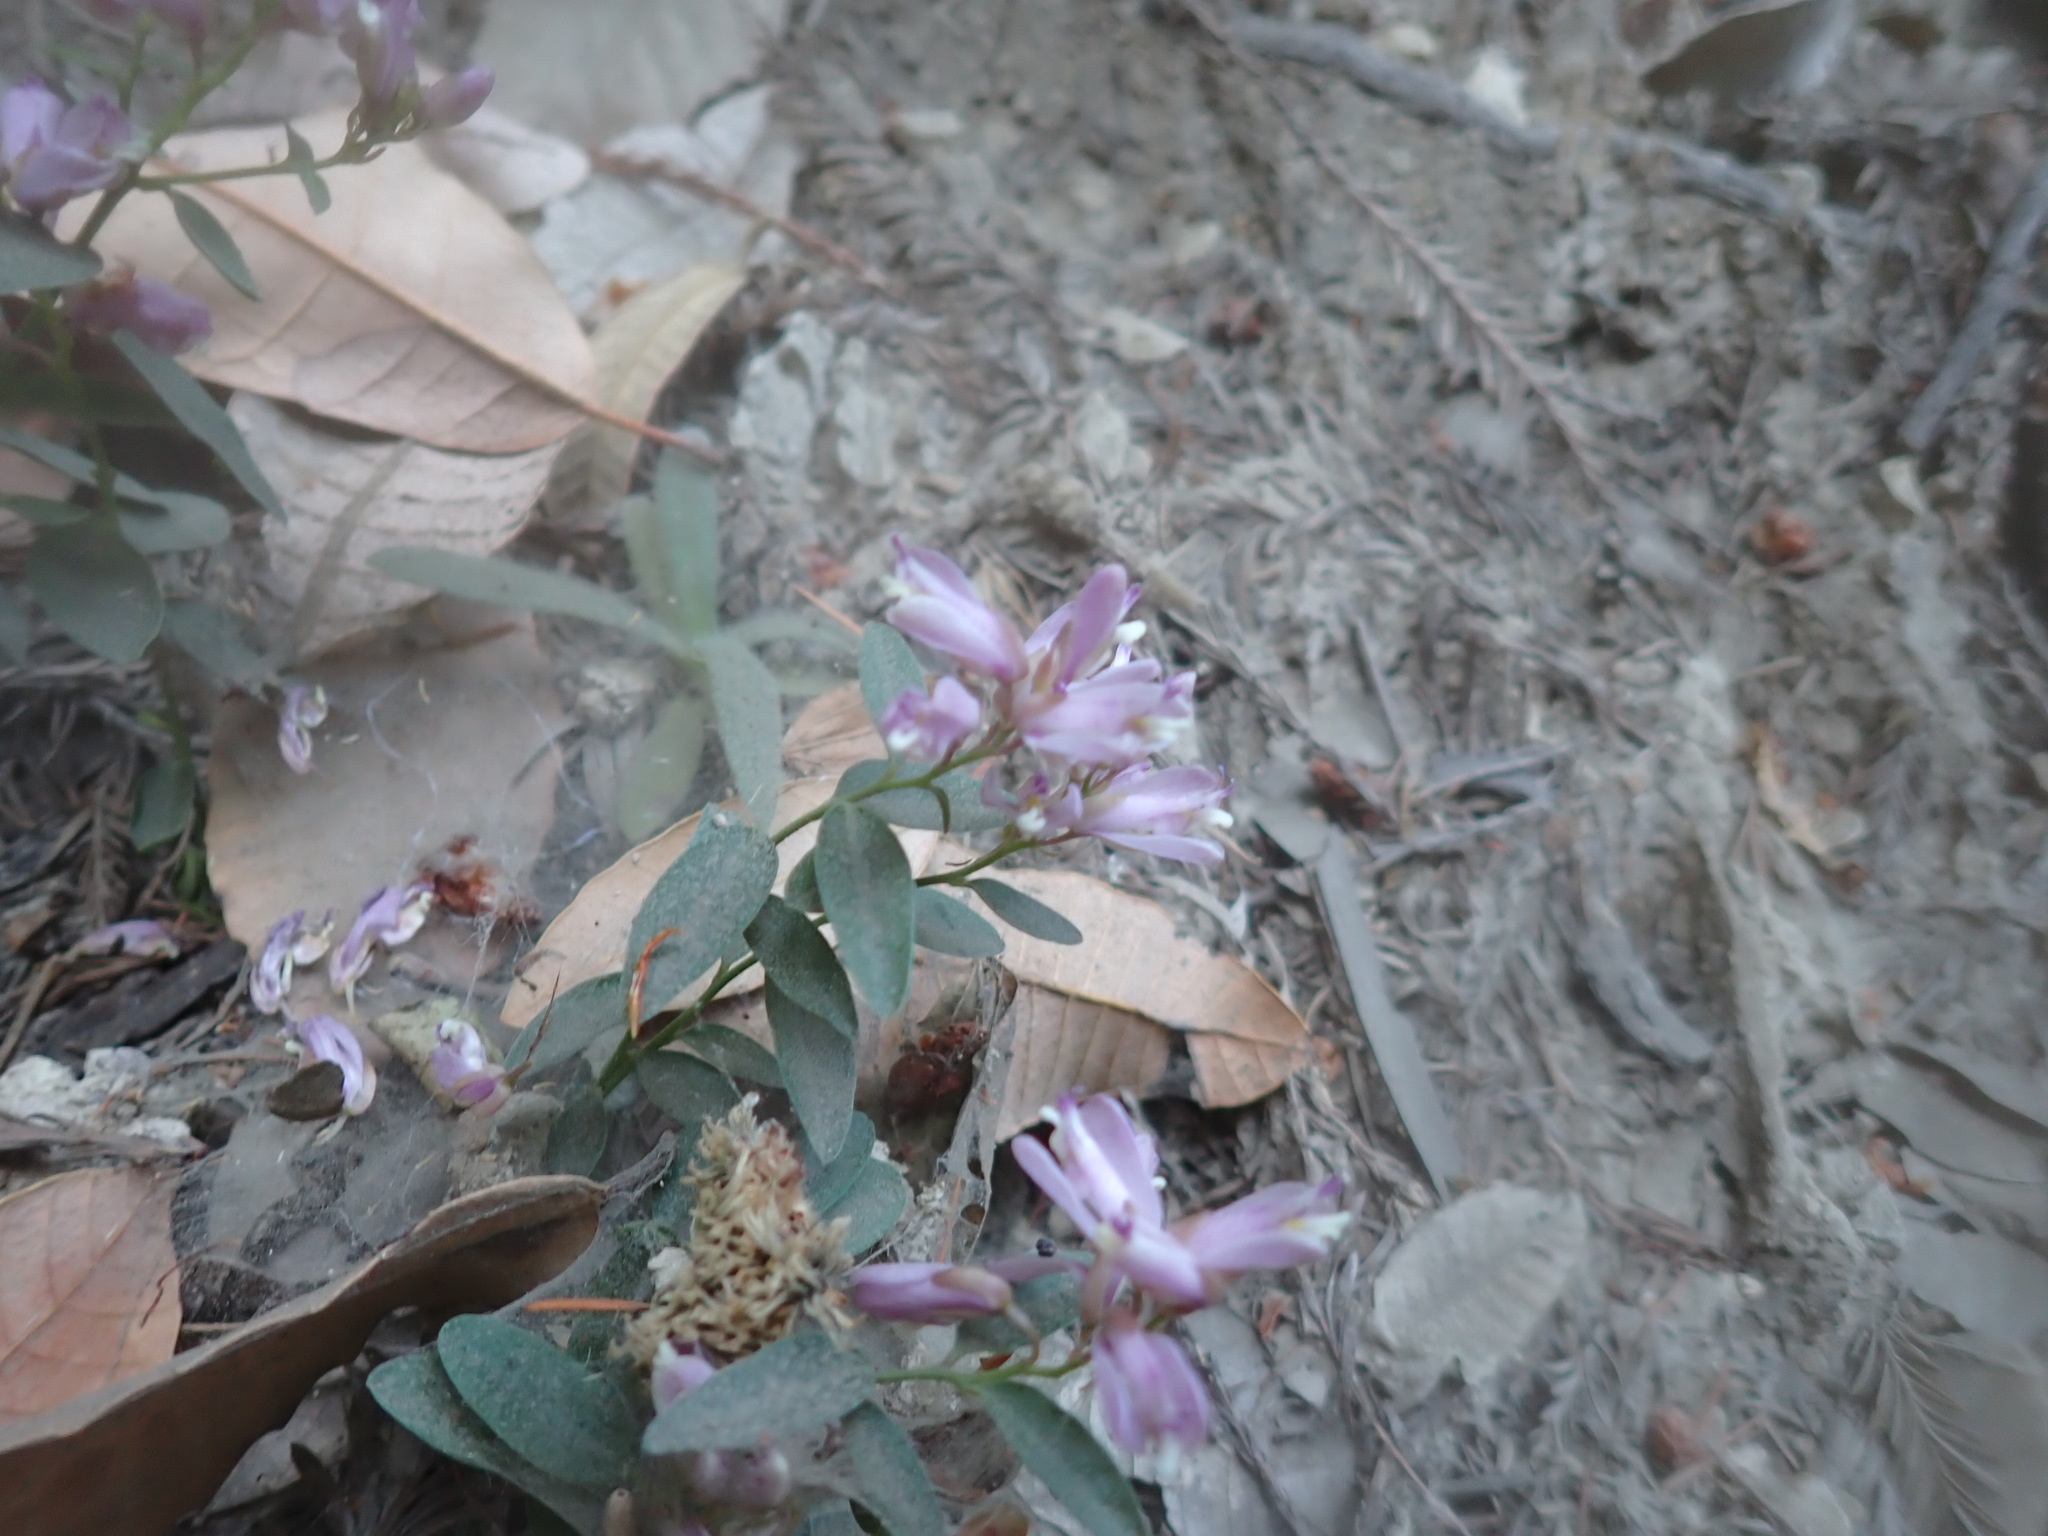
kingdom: Plantae
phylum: Tracheophyta
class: Magnoliopsida
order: Fabales
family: Polygalaceae
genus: Rhinotropis
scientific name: Rhinotropis californica
